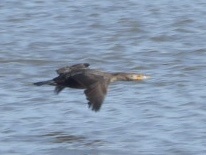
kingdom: Animalia
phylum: Chordata
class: Aves
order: Suliformes
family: Phalacrocoracidae
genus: Phalacrocorax
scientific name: Phalacrocorax auritus
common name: Double-crested cormorant
